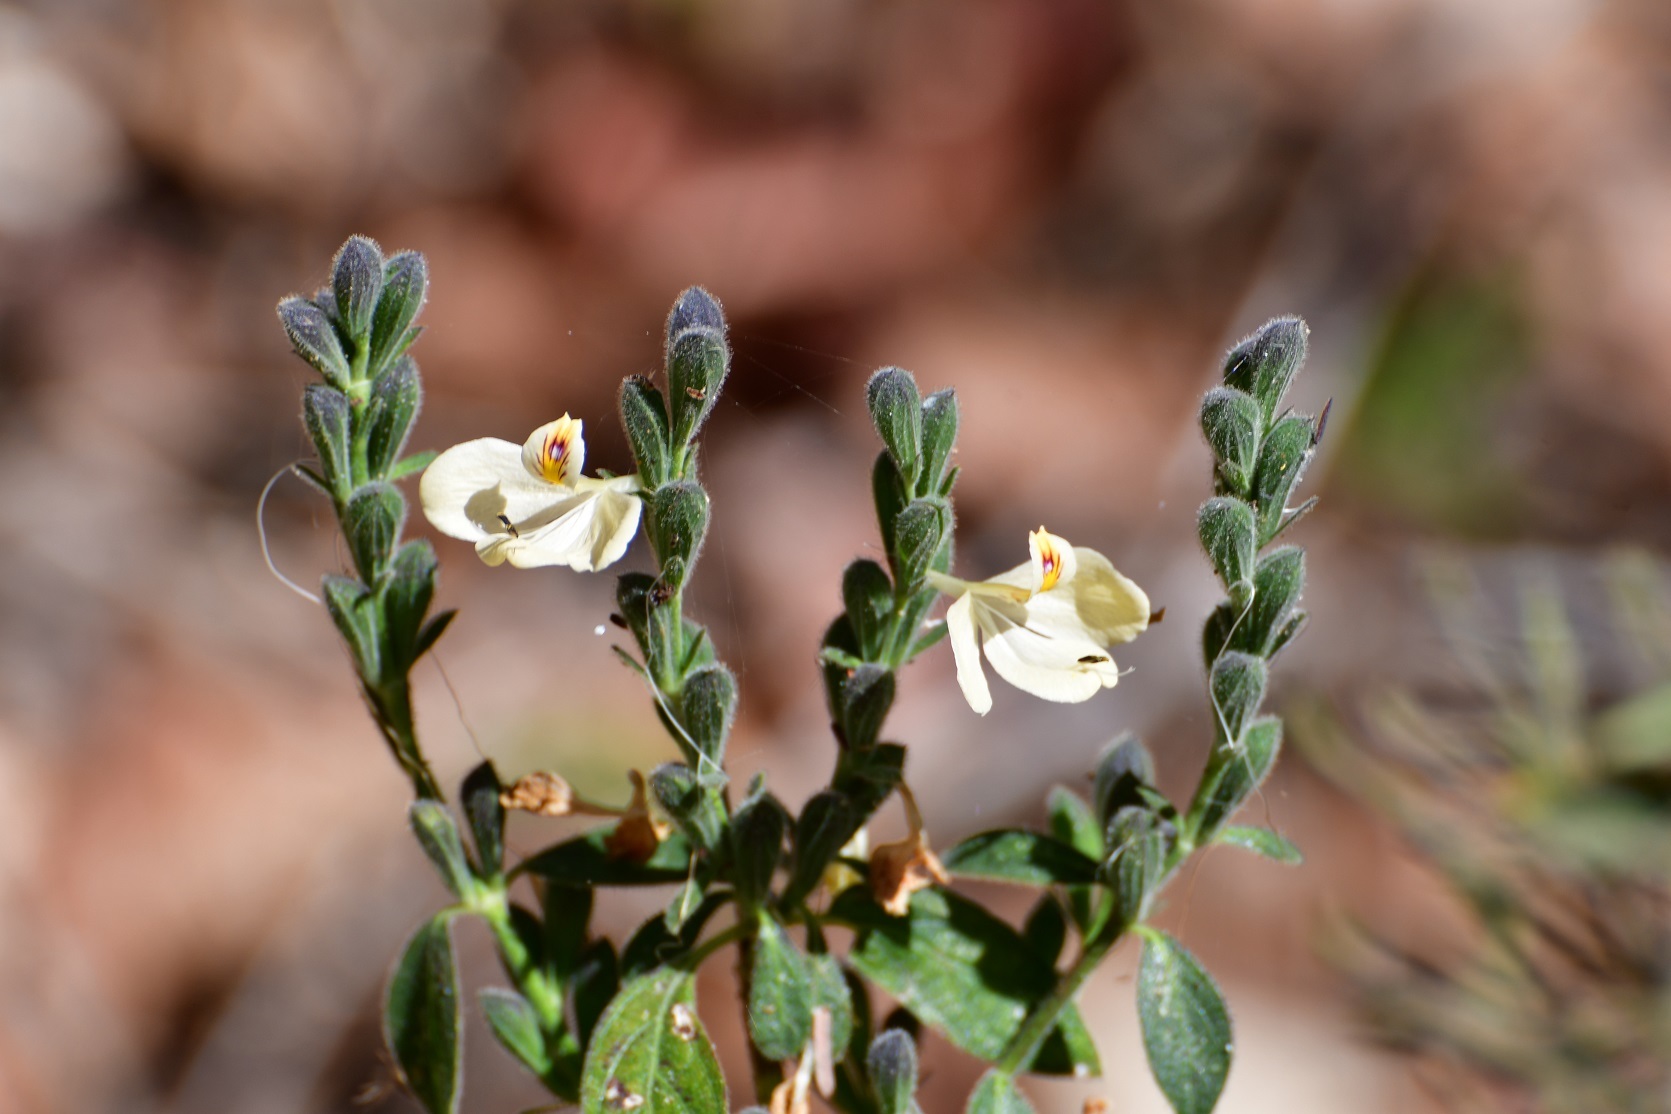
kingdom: Plantae
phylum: Tracheophyta
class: Magnoliopsida
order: Lamiales
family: Acanthaceae
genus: Henrya
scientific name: Henrya insularis
